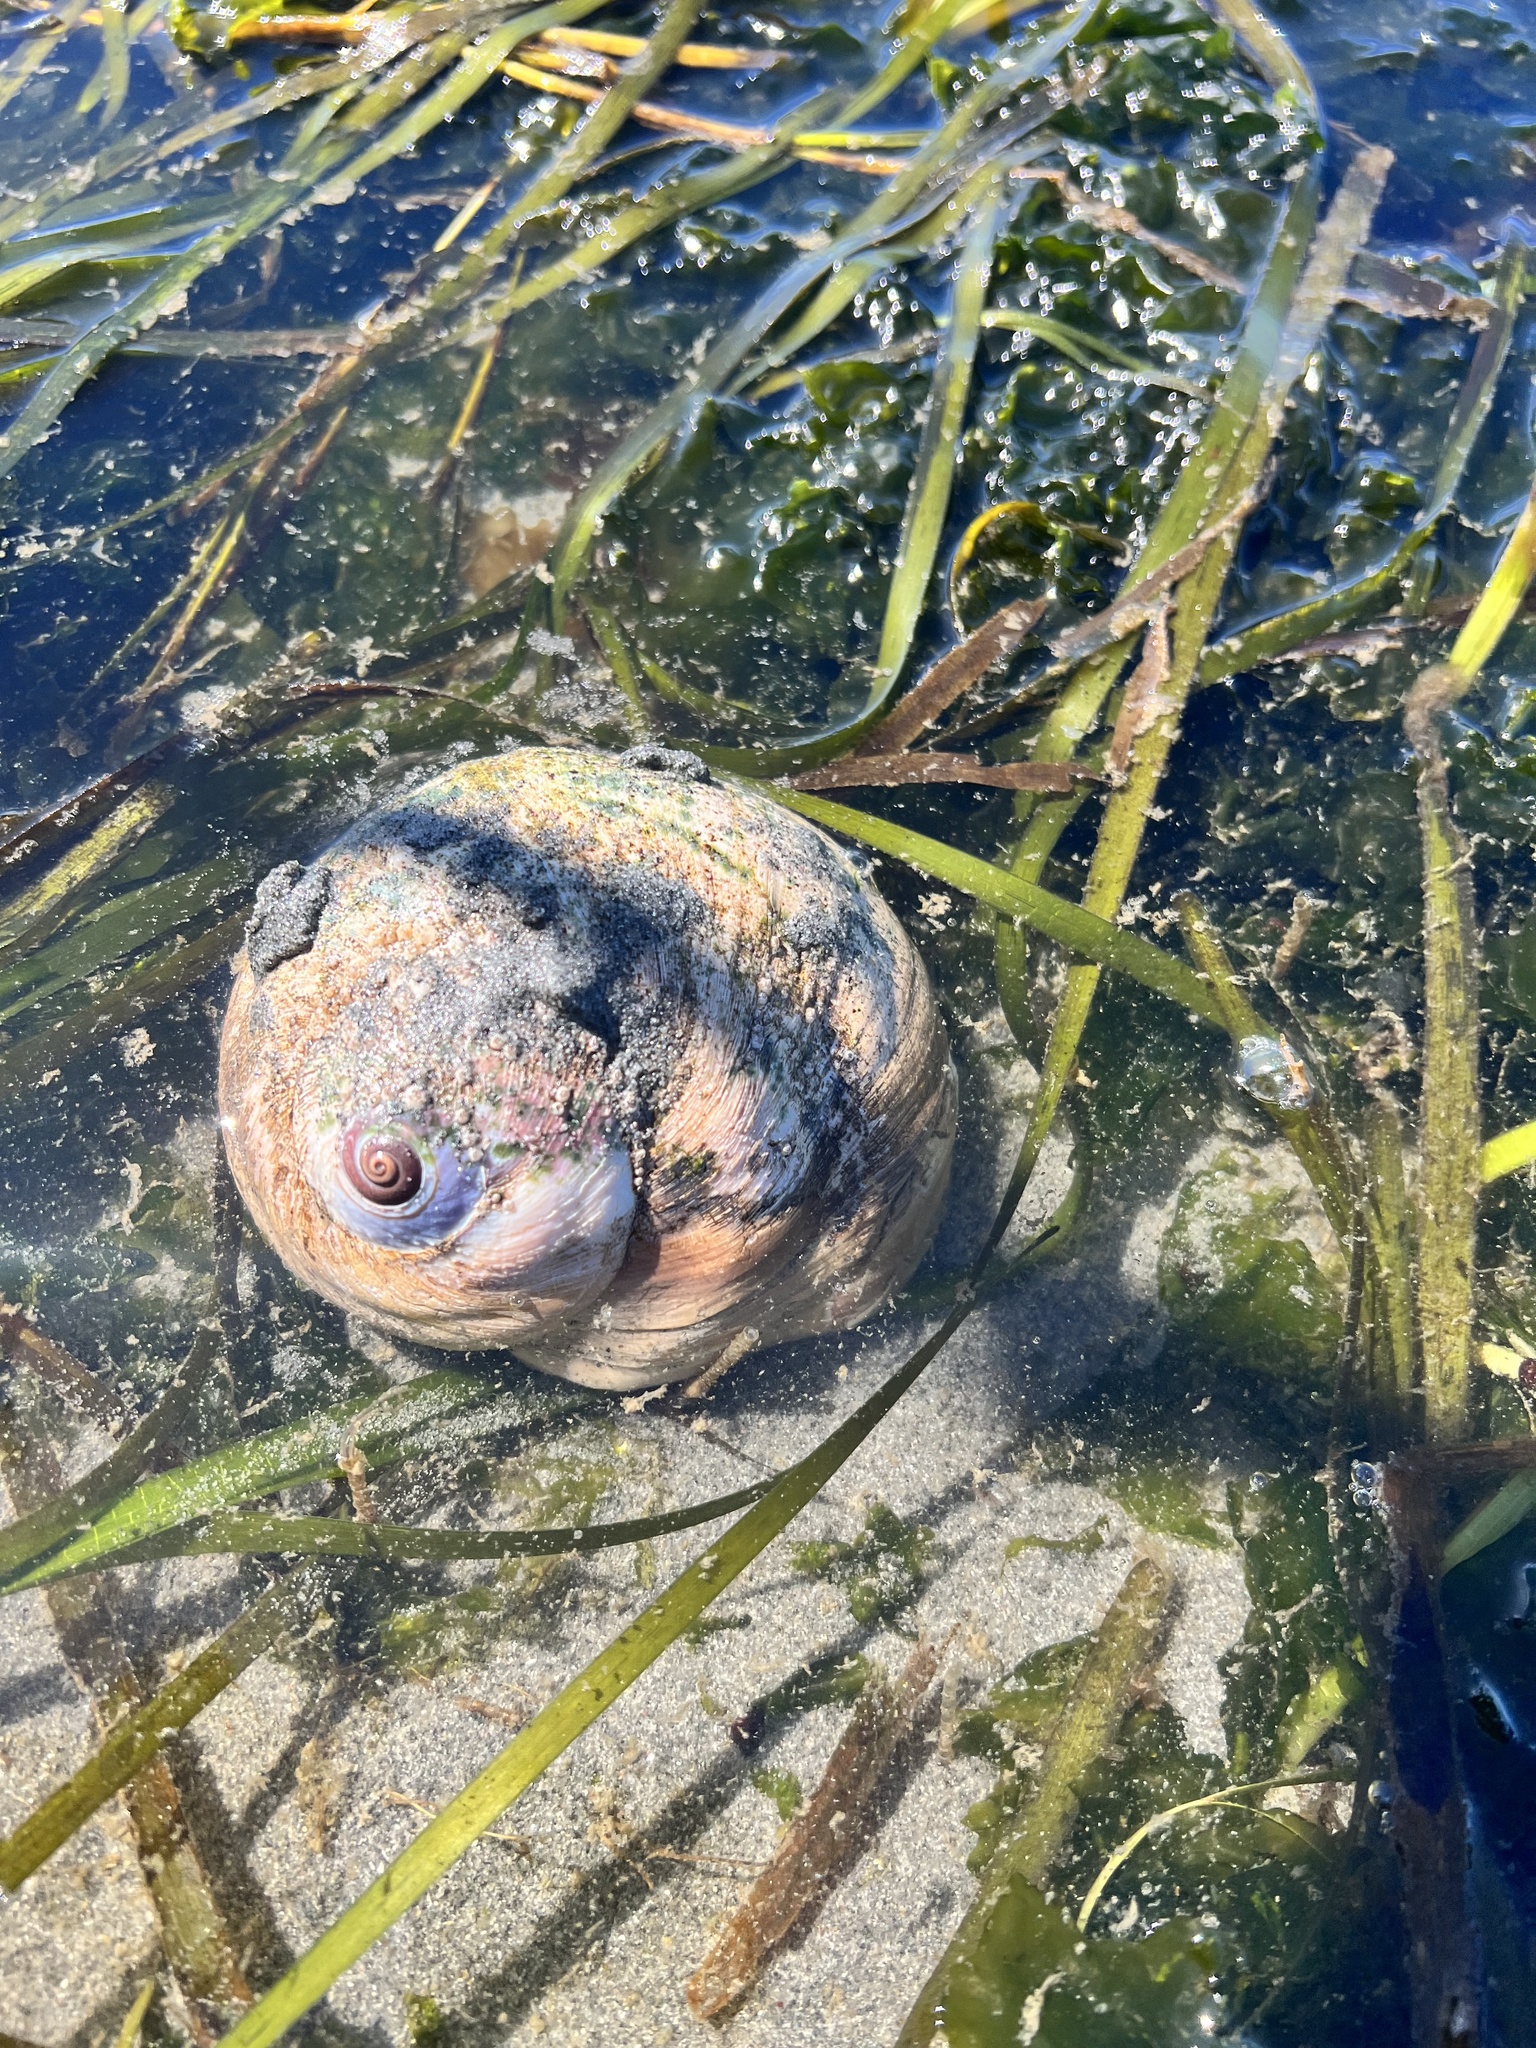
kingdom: Animalia
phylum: Mollusca
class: Gastropoda
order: Littorinimorpha
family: Naticidae
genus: Neverita
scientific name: Neverita lewisii
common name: Lewis' moonsnail
